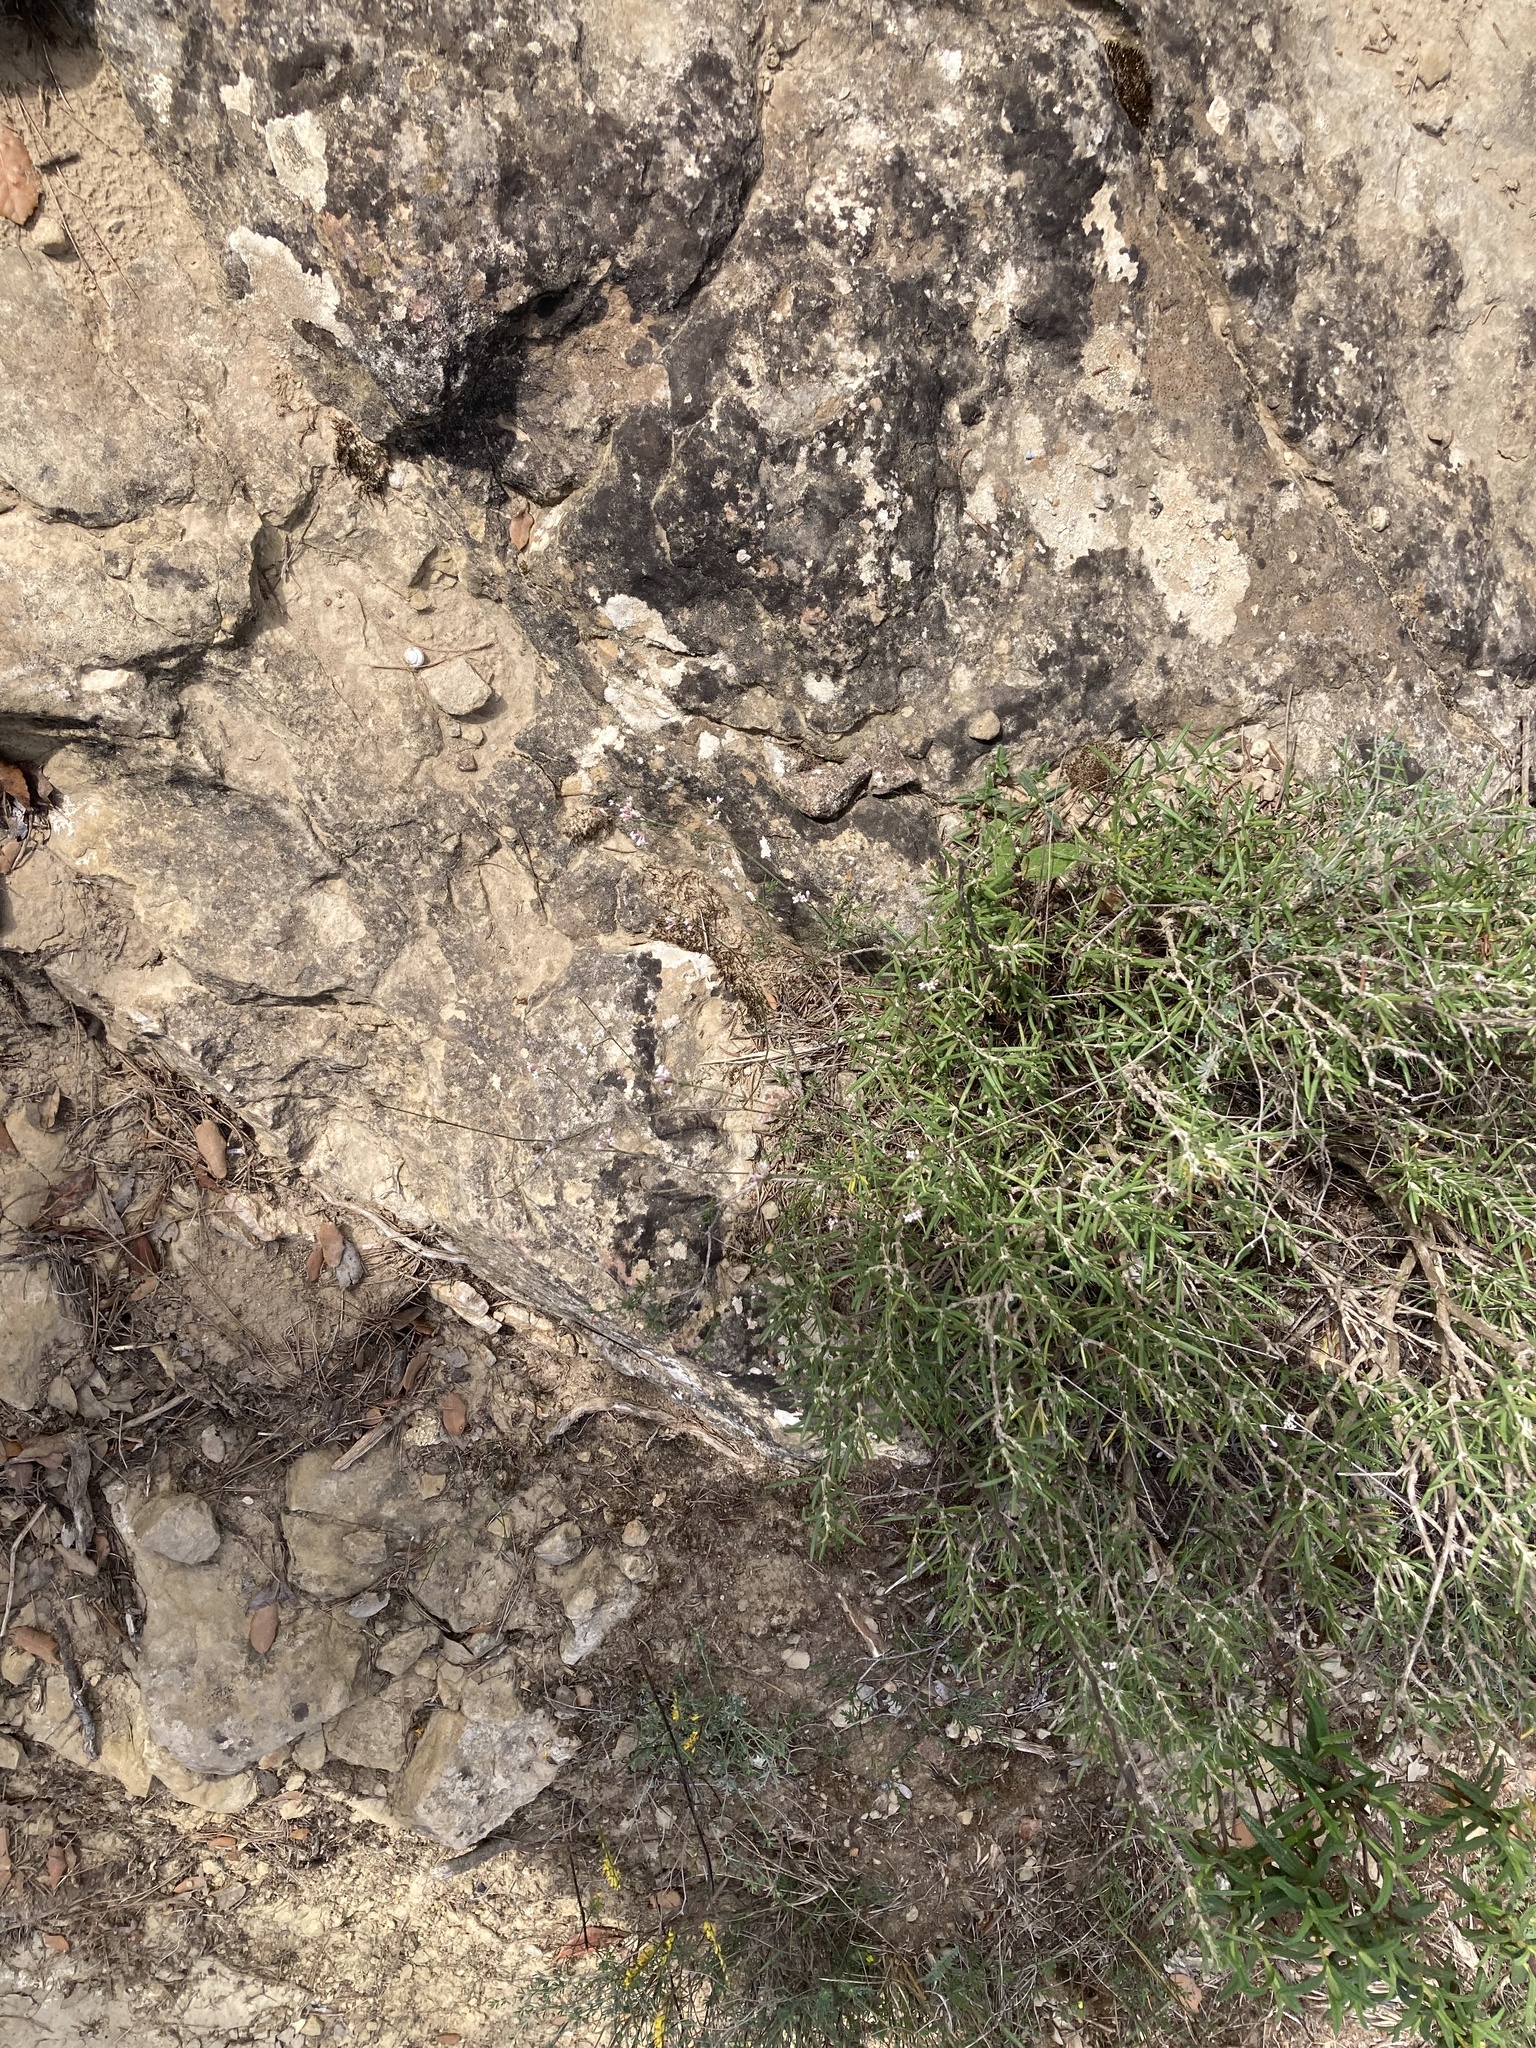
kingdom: Plantae
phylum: Tracheophyta
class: Magnoliopsida
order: Gentianales
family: Rubiaceae
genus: Cynanchica
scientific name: Cynanchica pyrenaica
